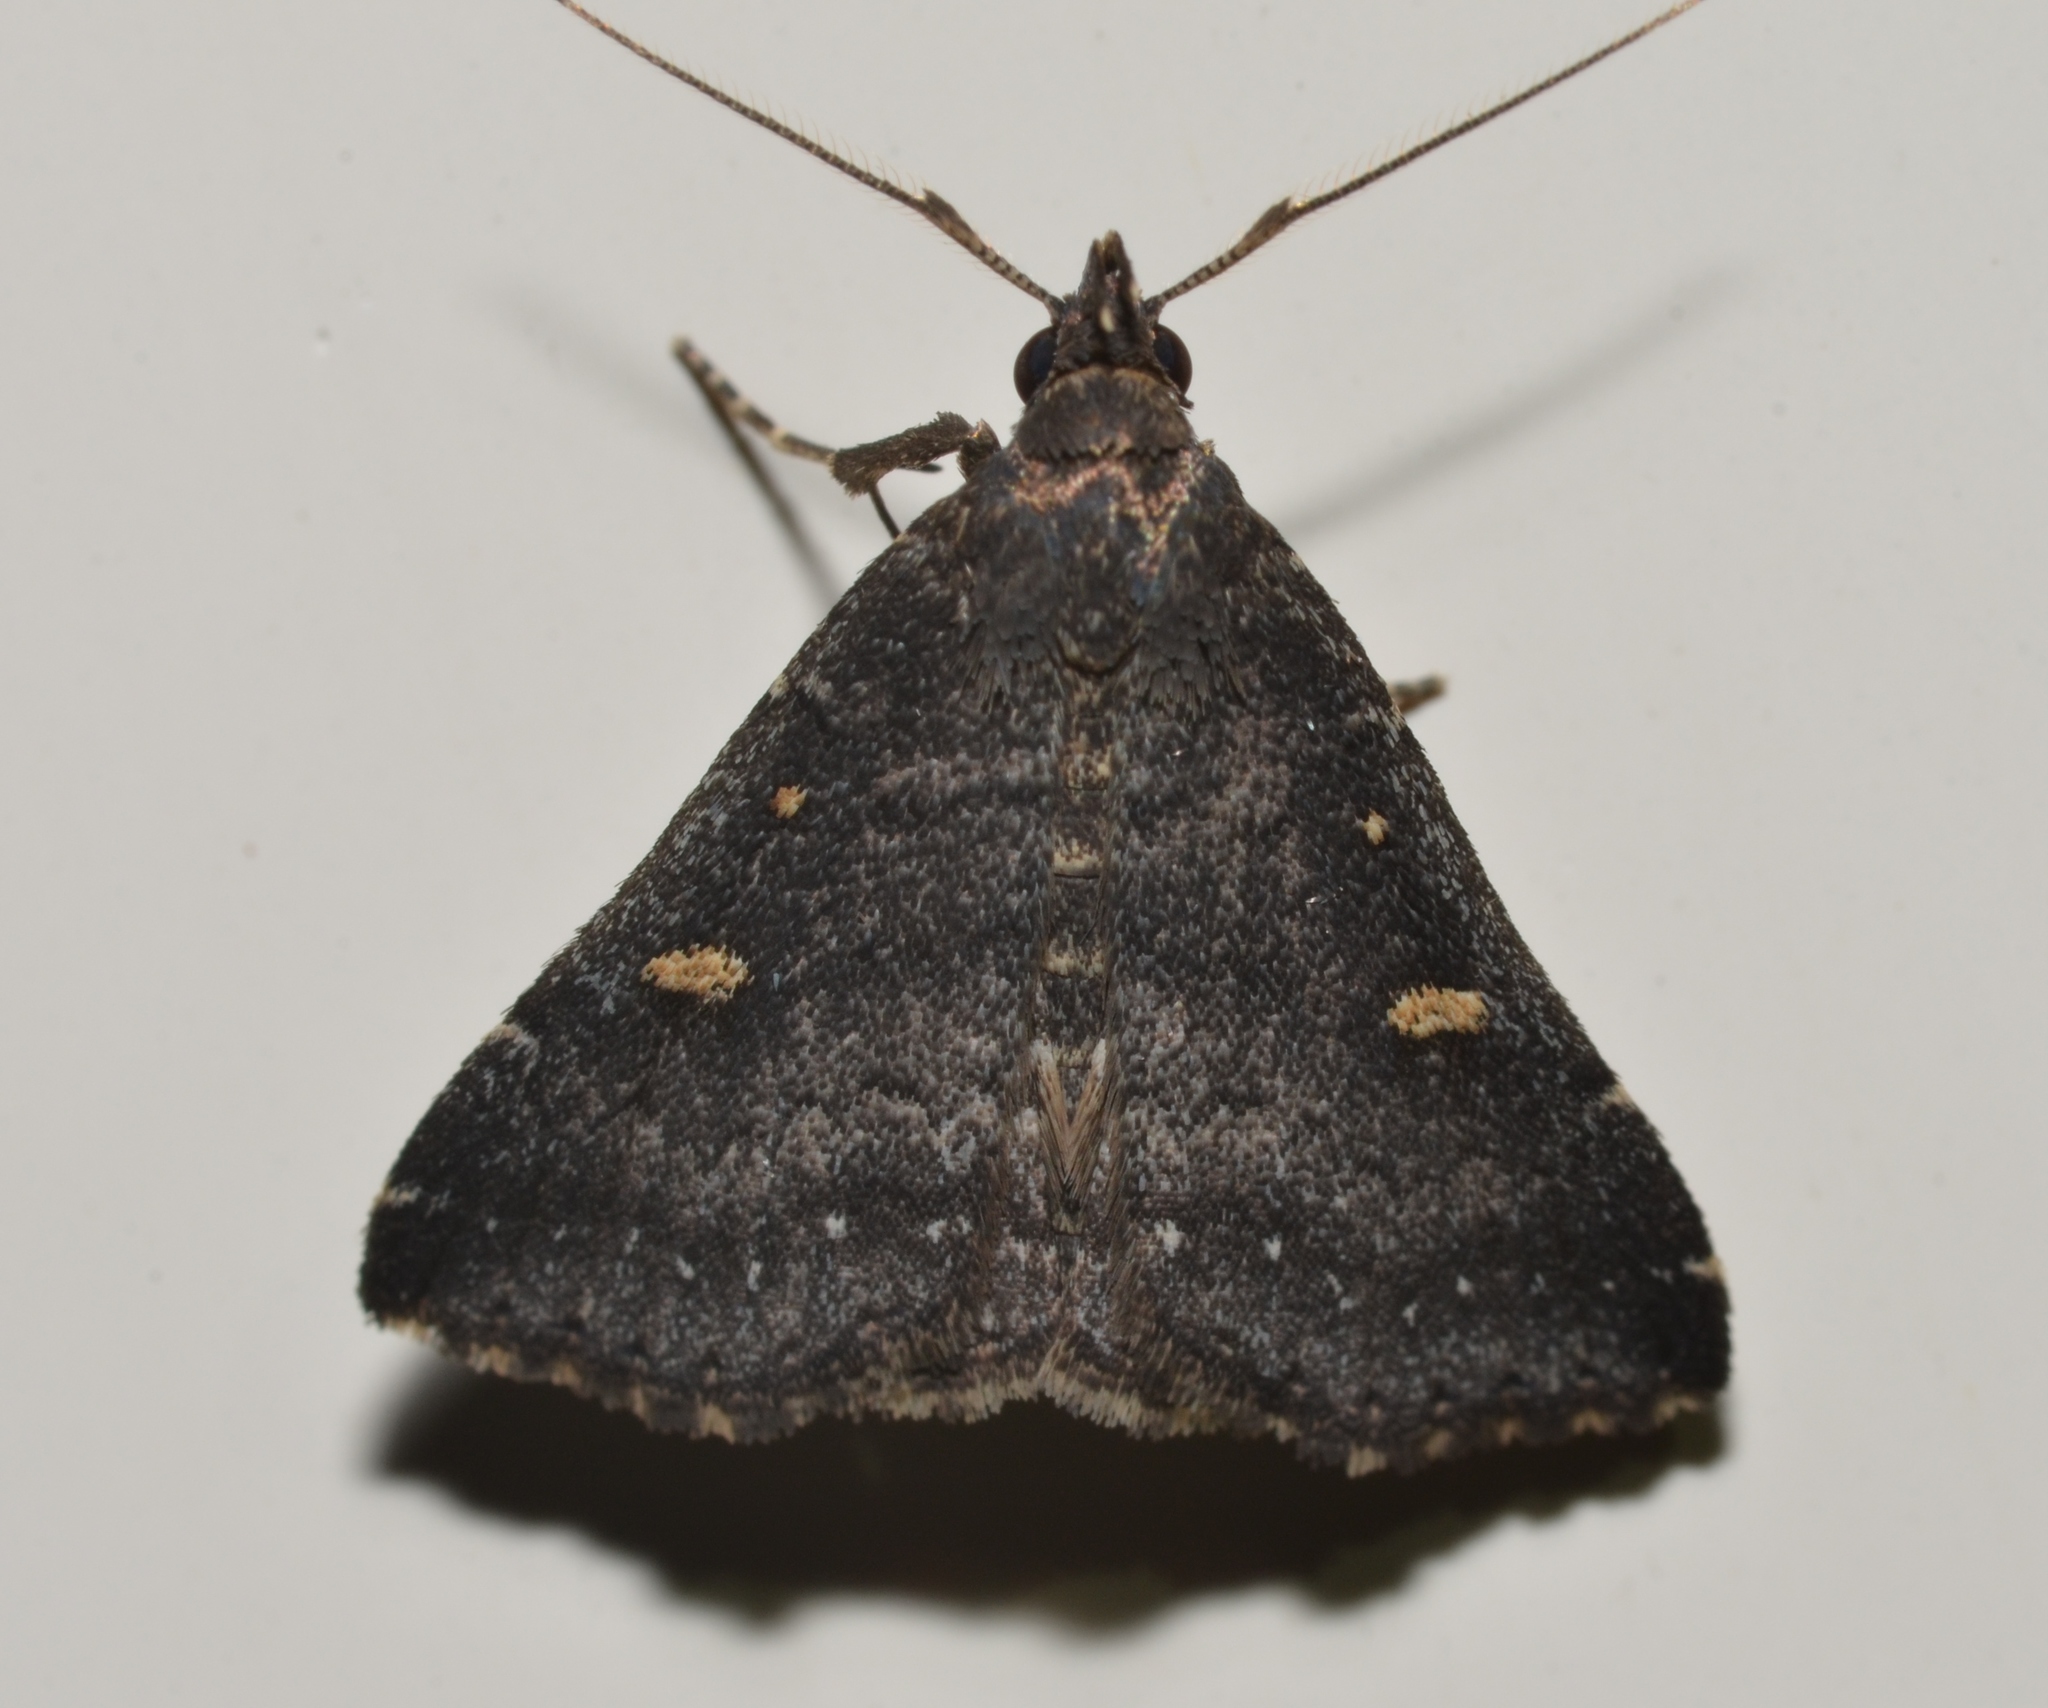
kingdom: Animalia
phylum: Arthropoda
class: Insecta
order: Lepidoptera
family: Erebidae
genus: Tetanolita
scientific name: Tetanolita mynesalis
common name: Smoky tetanolita moth
